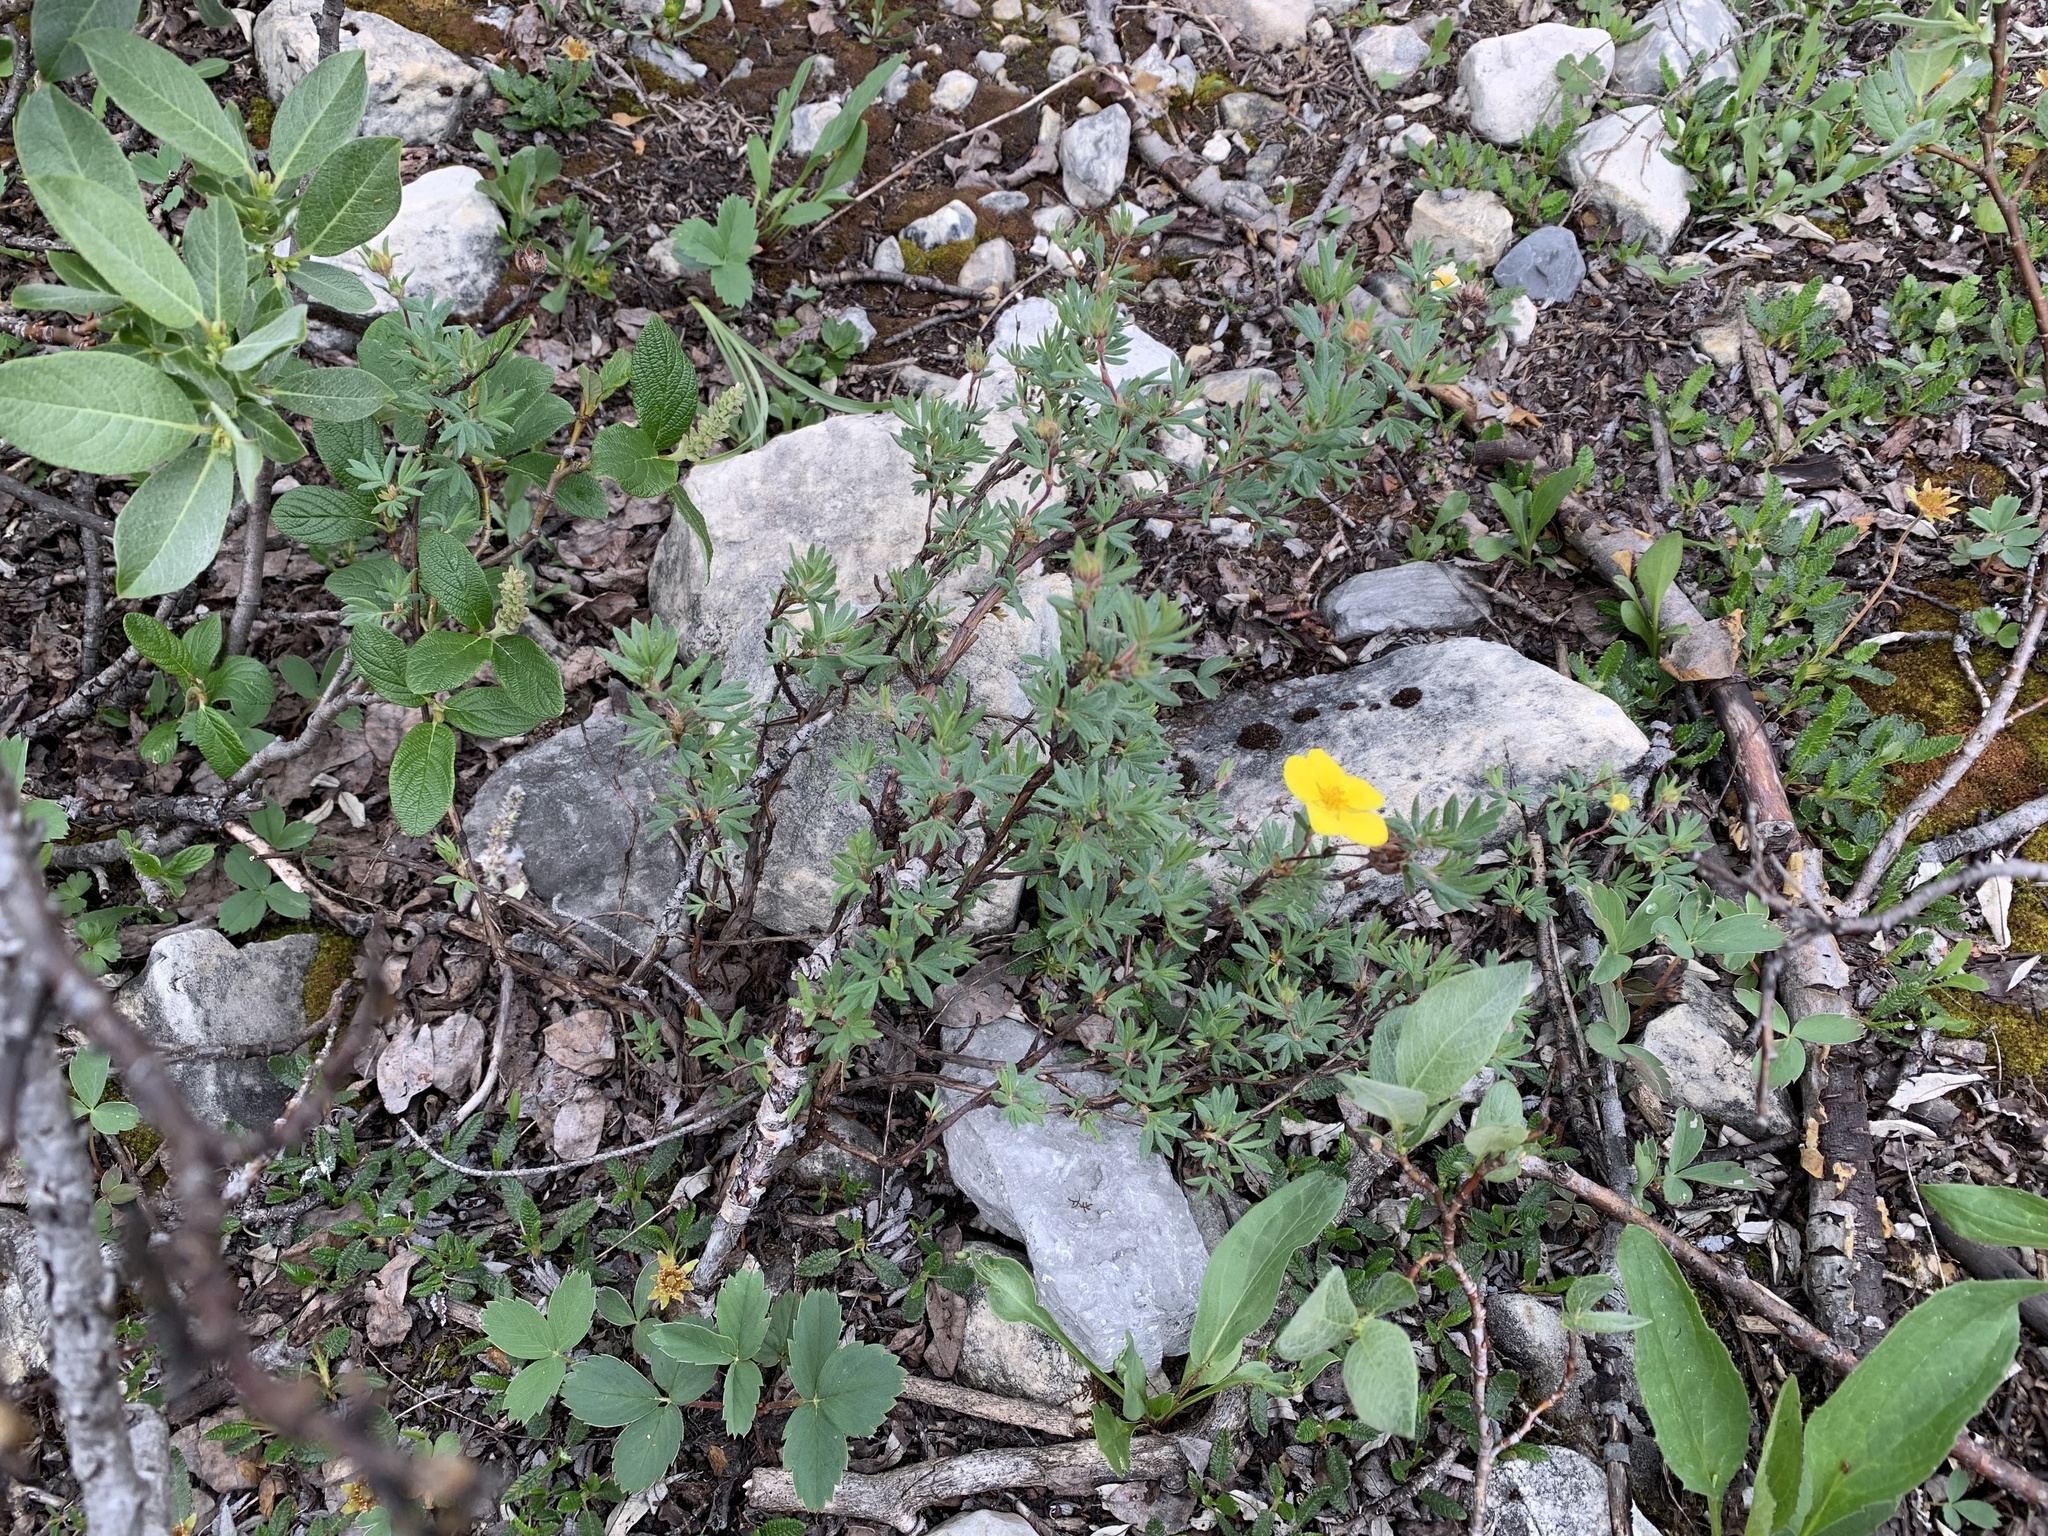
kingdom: Plantae
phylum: Tracheophyta
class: Magnoliopsida
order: Rosales
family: Rosaceae
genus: Dasiphora
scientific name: Dasiphora fruticosa
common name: Shrubby cinquefoil
